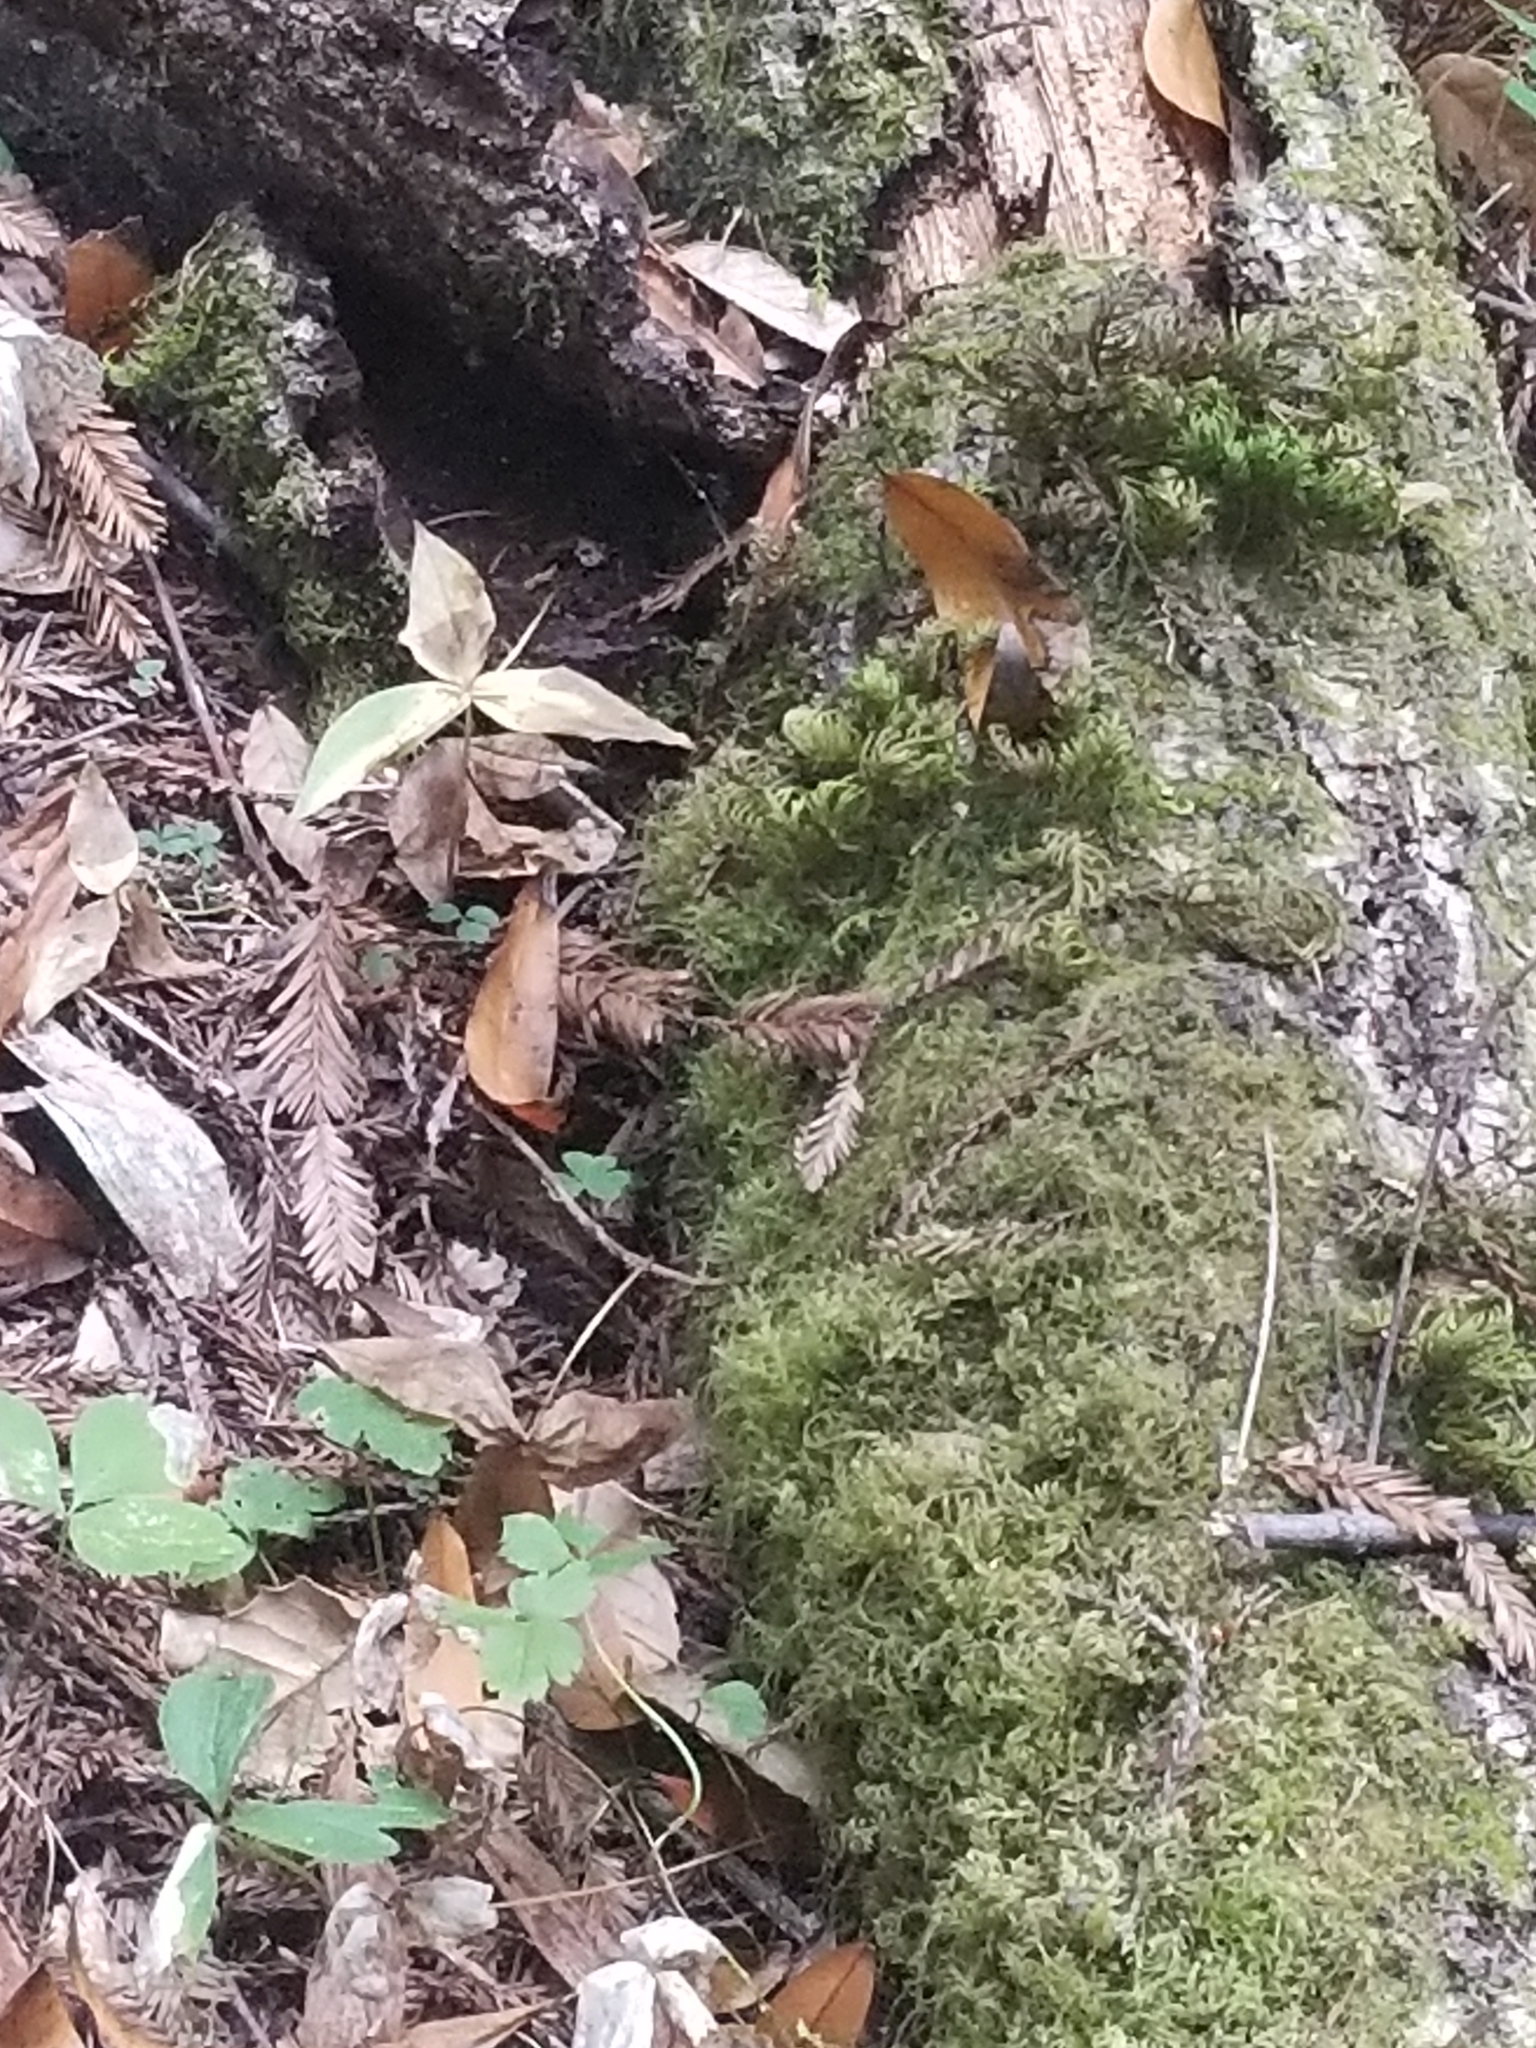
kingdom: Plantae
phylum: Bryophyta
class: Bryopsida
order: Hypnales
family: Cryphaeaceae
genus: Dendroalsia
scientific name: Dendroalsia abietina
